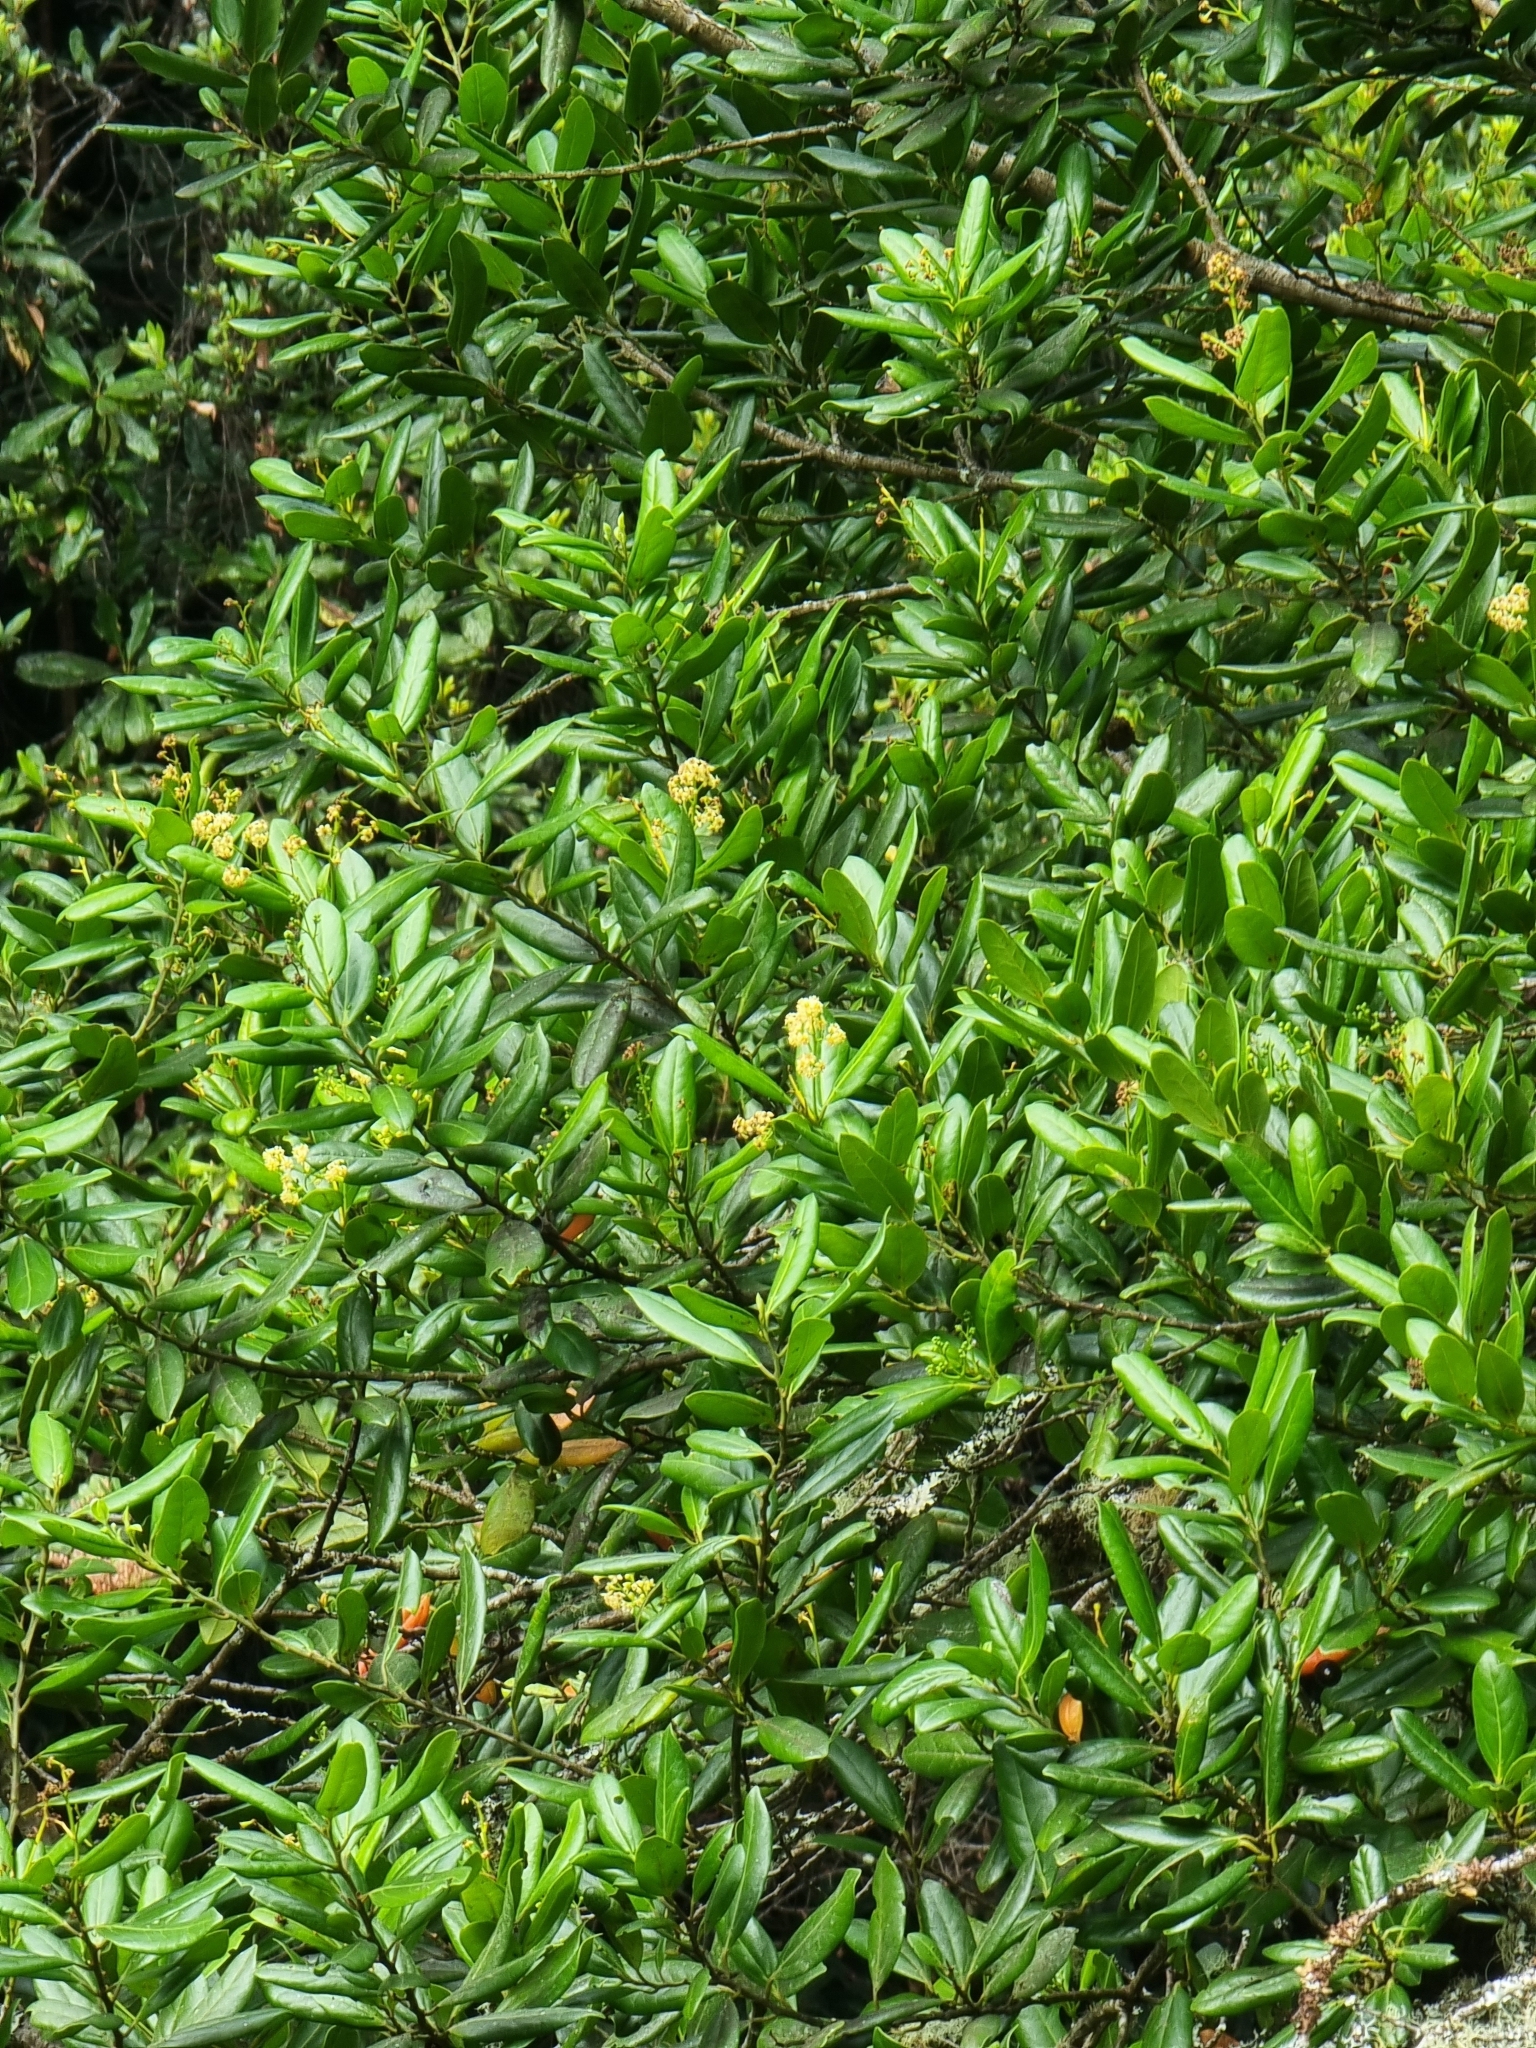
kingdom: Plantae
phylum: Tracheophyta
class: Magnoliopsida
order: Laurales
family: Lauraceae
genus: Mespilodaphne
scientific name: Mespilodaphne foetens
